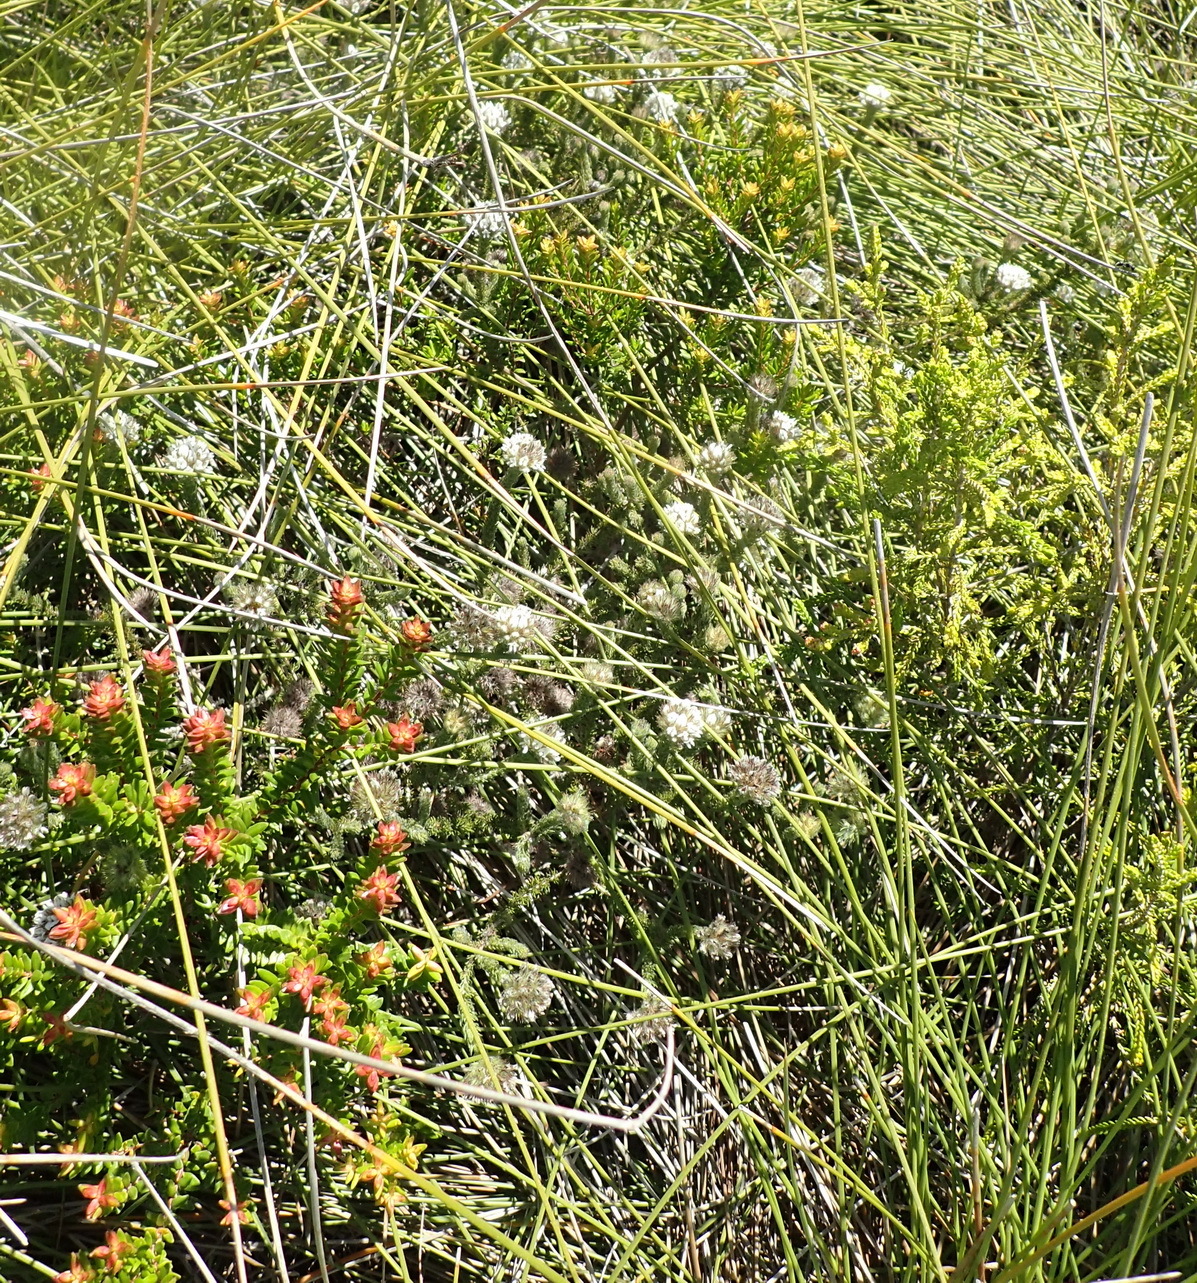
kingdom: Plantae
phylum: Tracheophyta
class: Magnoliopsida
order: Fabales
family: Fabaceae
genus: Aspalathus
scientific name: Aspalathus cerrhantha
